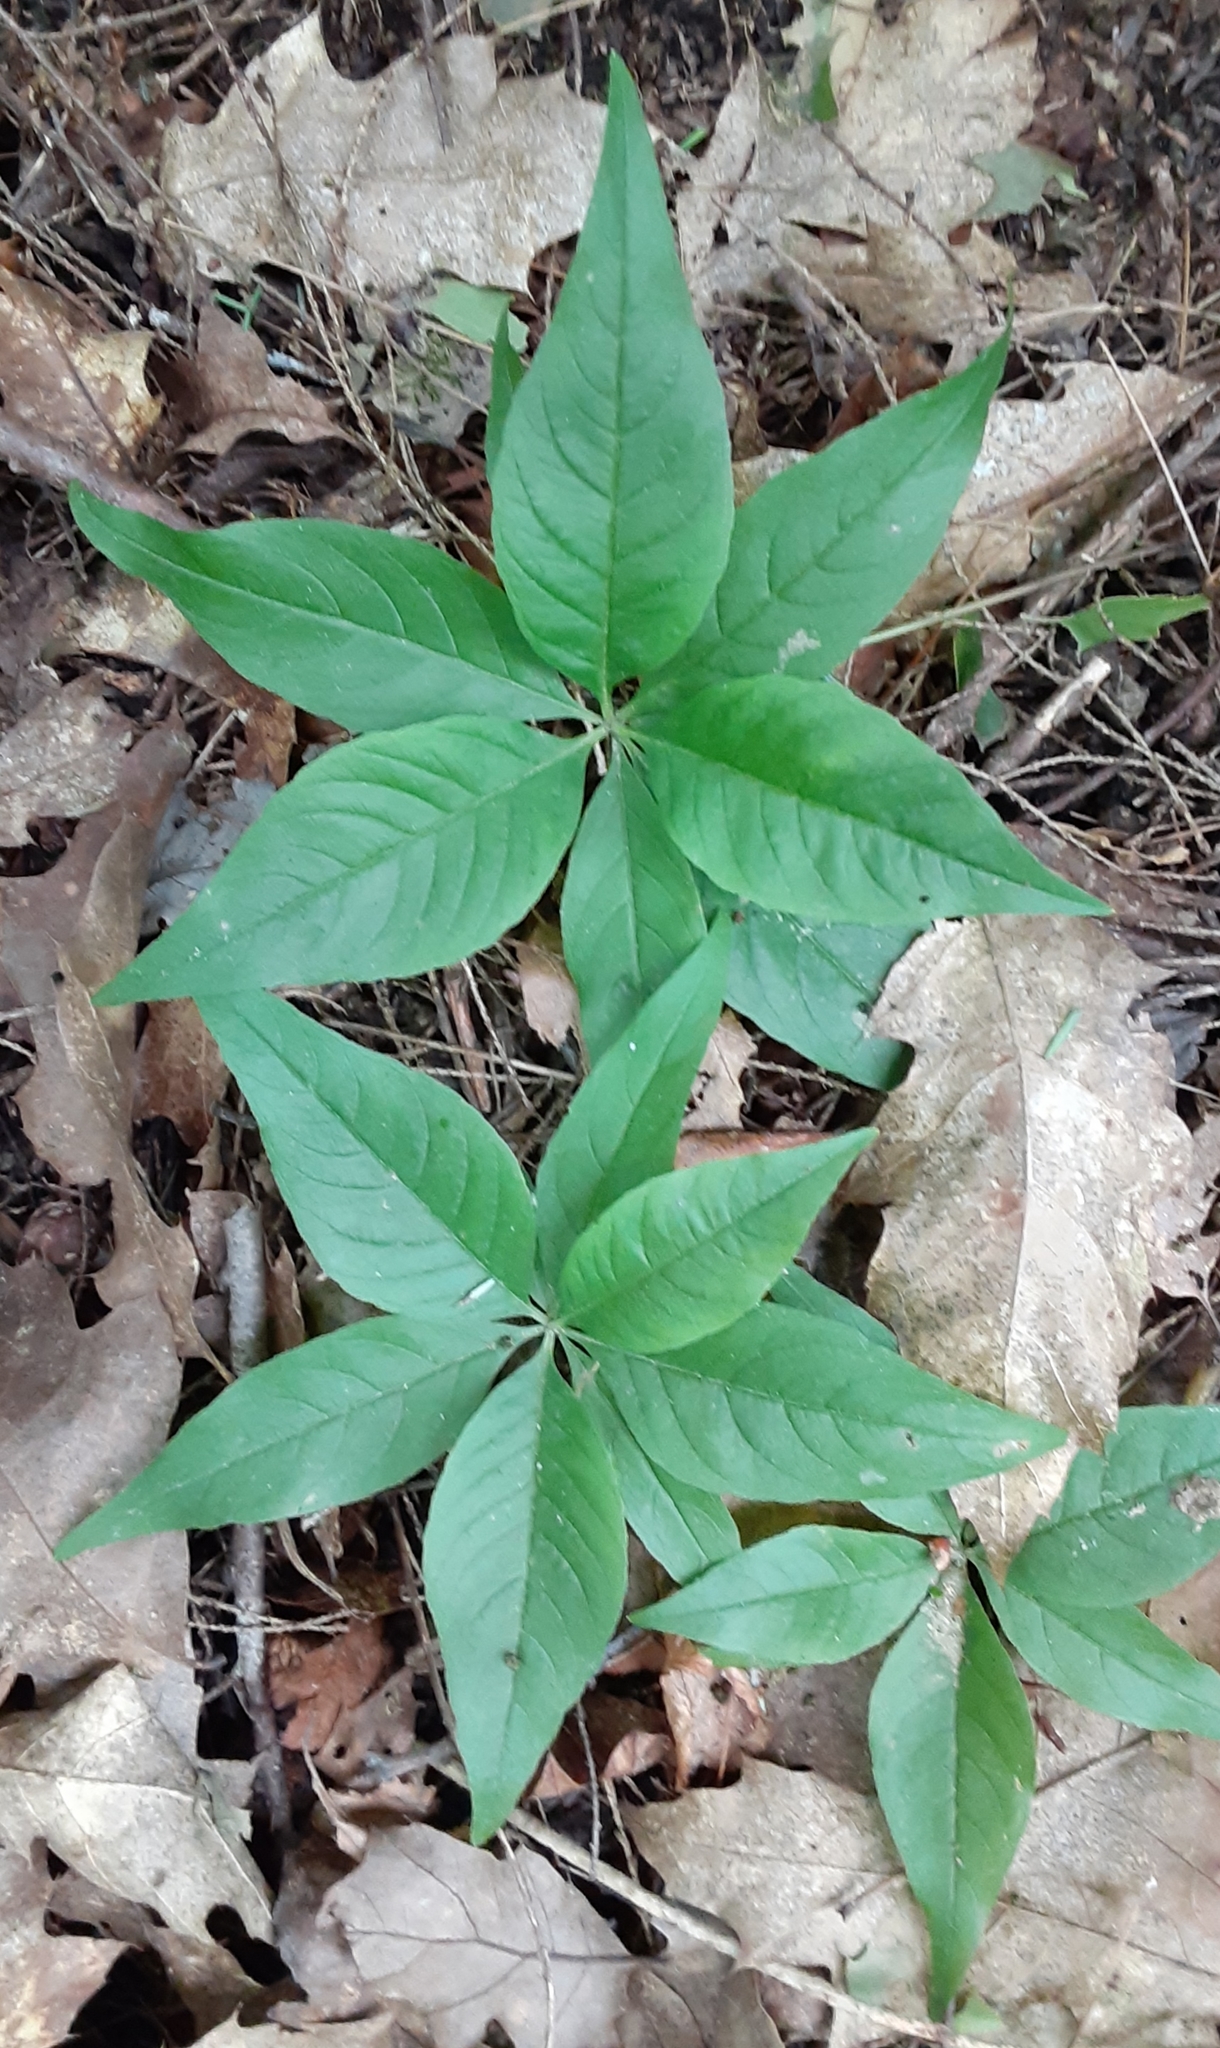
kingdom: Plantae
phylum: Tracheophyta
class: Magnoliopsida
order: Ericales
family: Primulaceae
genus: Lysimachia
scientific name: Lysimachia borealis
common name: American starflower
